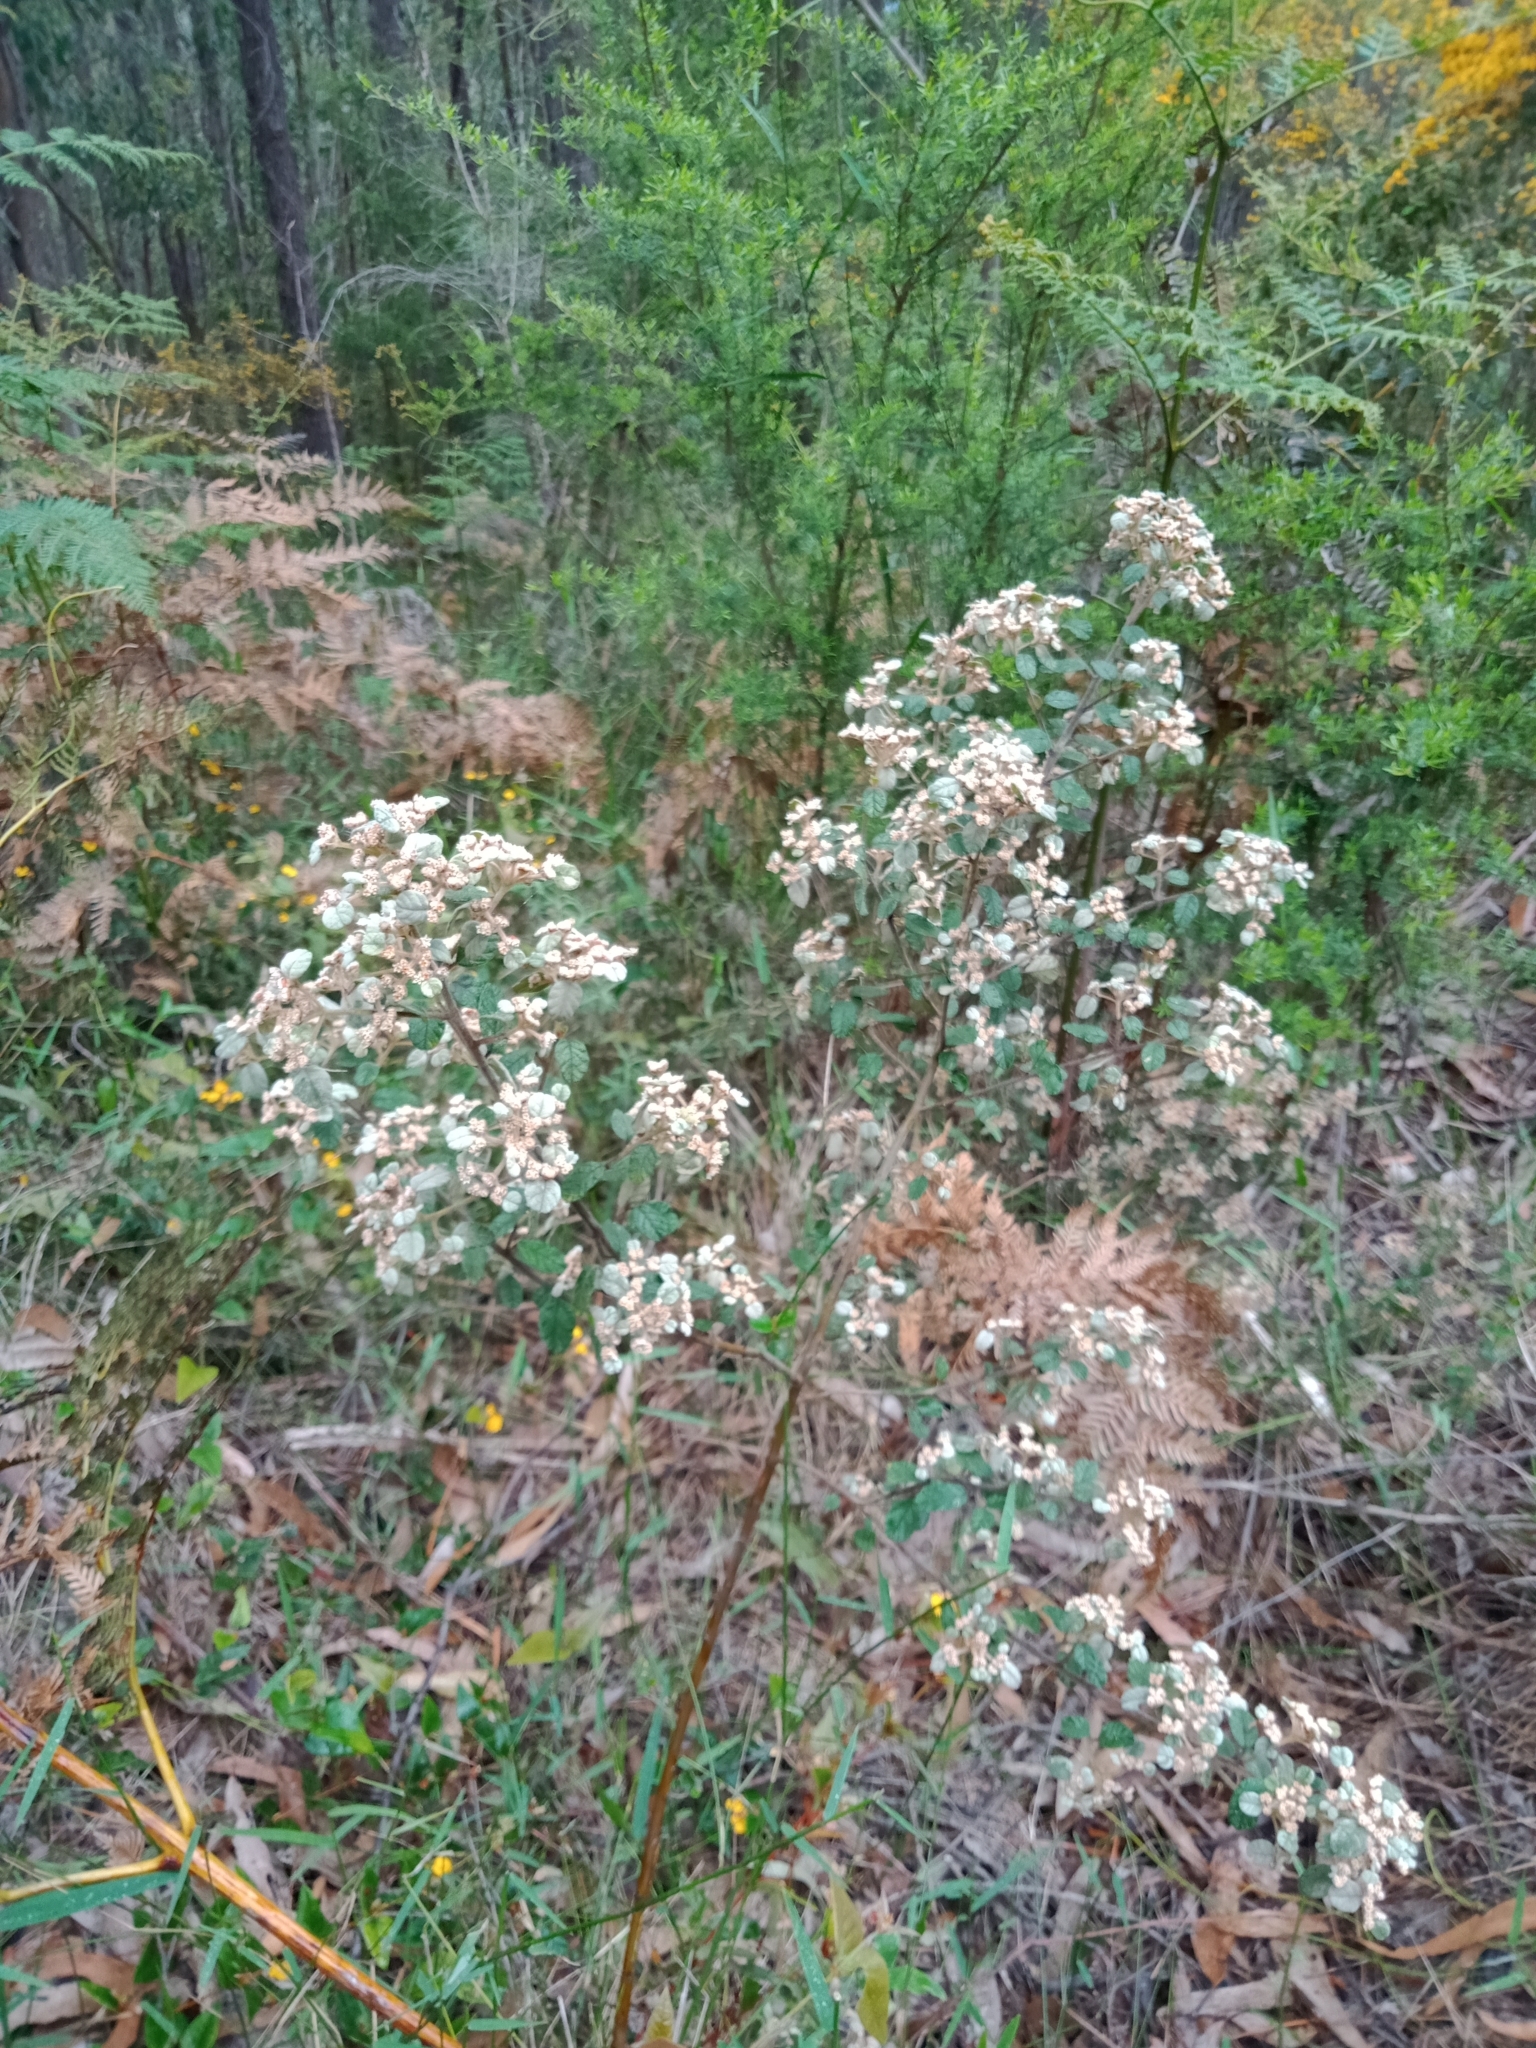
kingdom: Plantae
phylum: Tracheophyta
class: Magnoliopsida
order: Rosales
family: Rhamnaceae
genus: Spyridium
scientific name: Spyridium parvifolium
